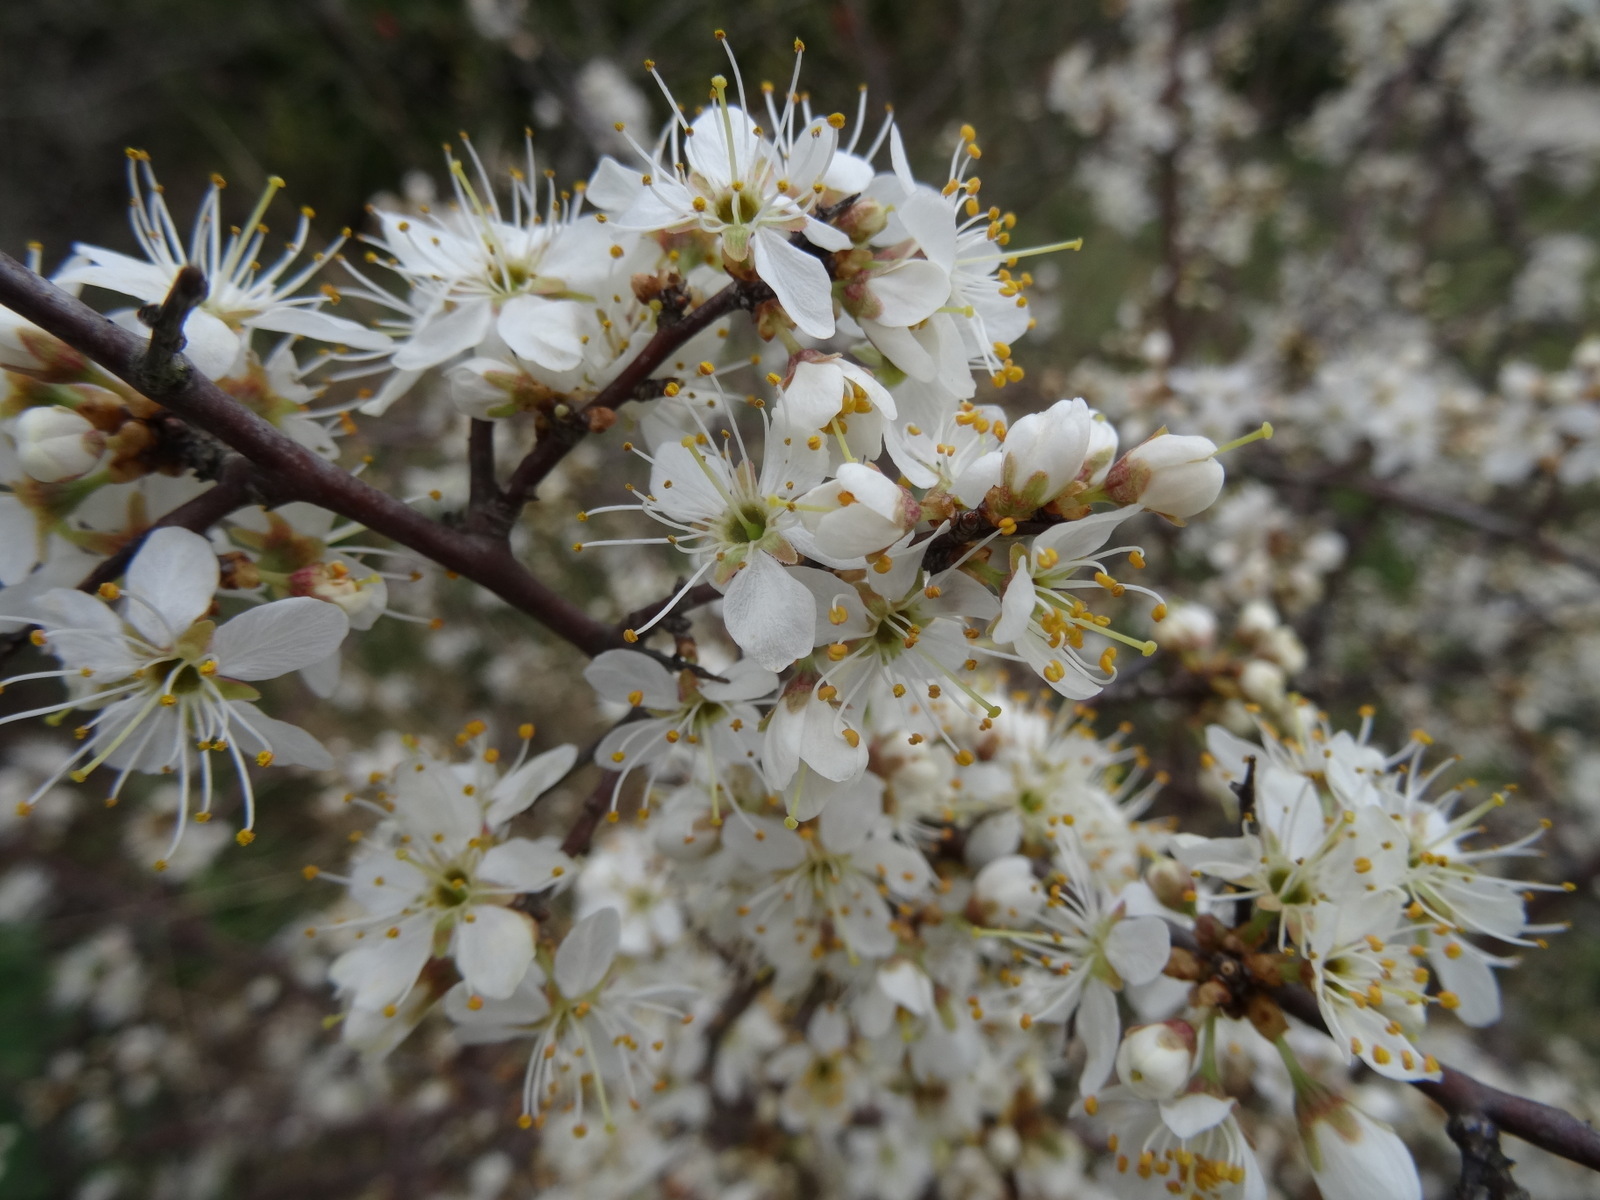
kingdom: Plantae
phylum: Tracheophyta
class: Magnoliopsida
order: Rosales
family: Rosaceae
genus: Prunus
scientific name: Prunus spinosa
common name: Blackthorn
